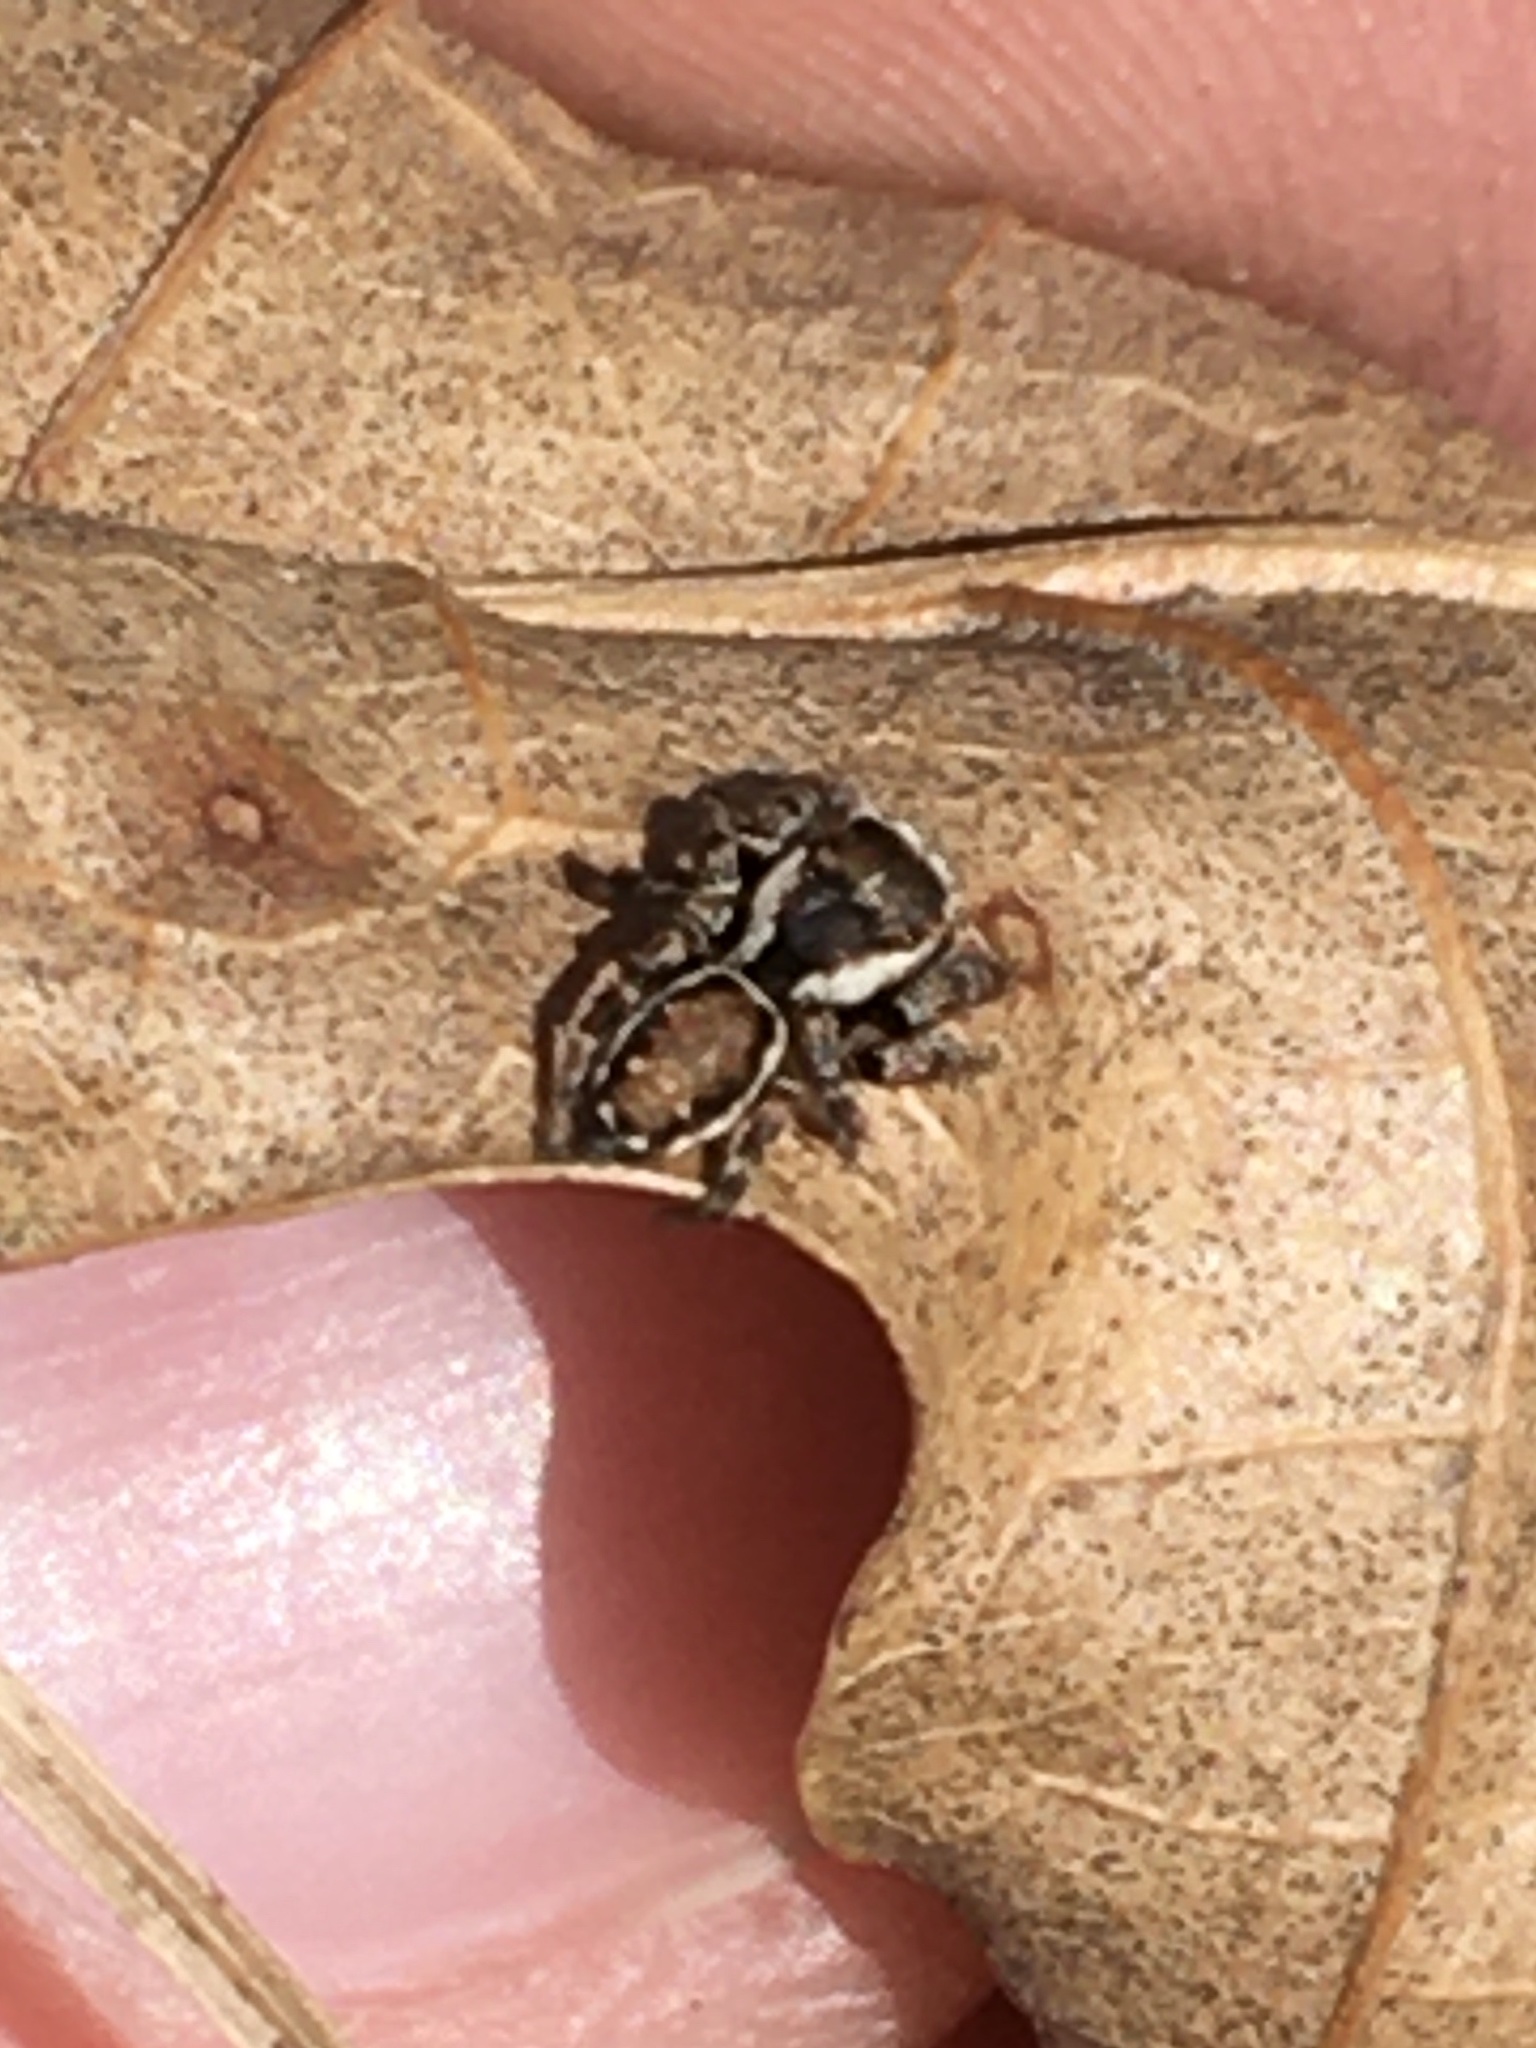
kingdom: Animalia
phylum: Arthropoda
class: Arachnida
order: Araneae
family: Salticidae
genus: Evarcha
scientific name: Evarcha hoyi
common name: Hoy's jumping spider
